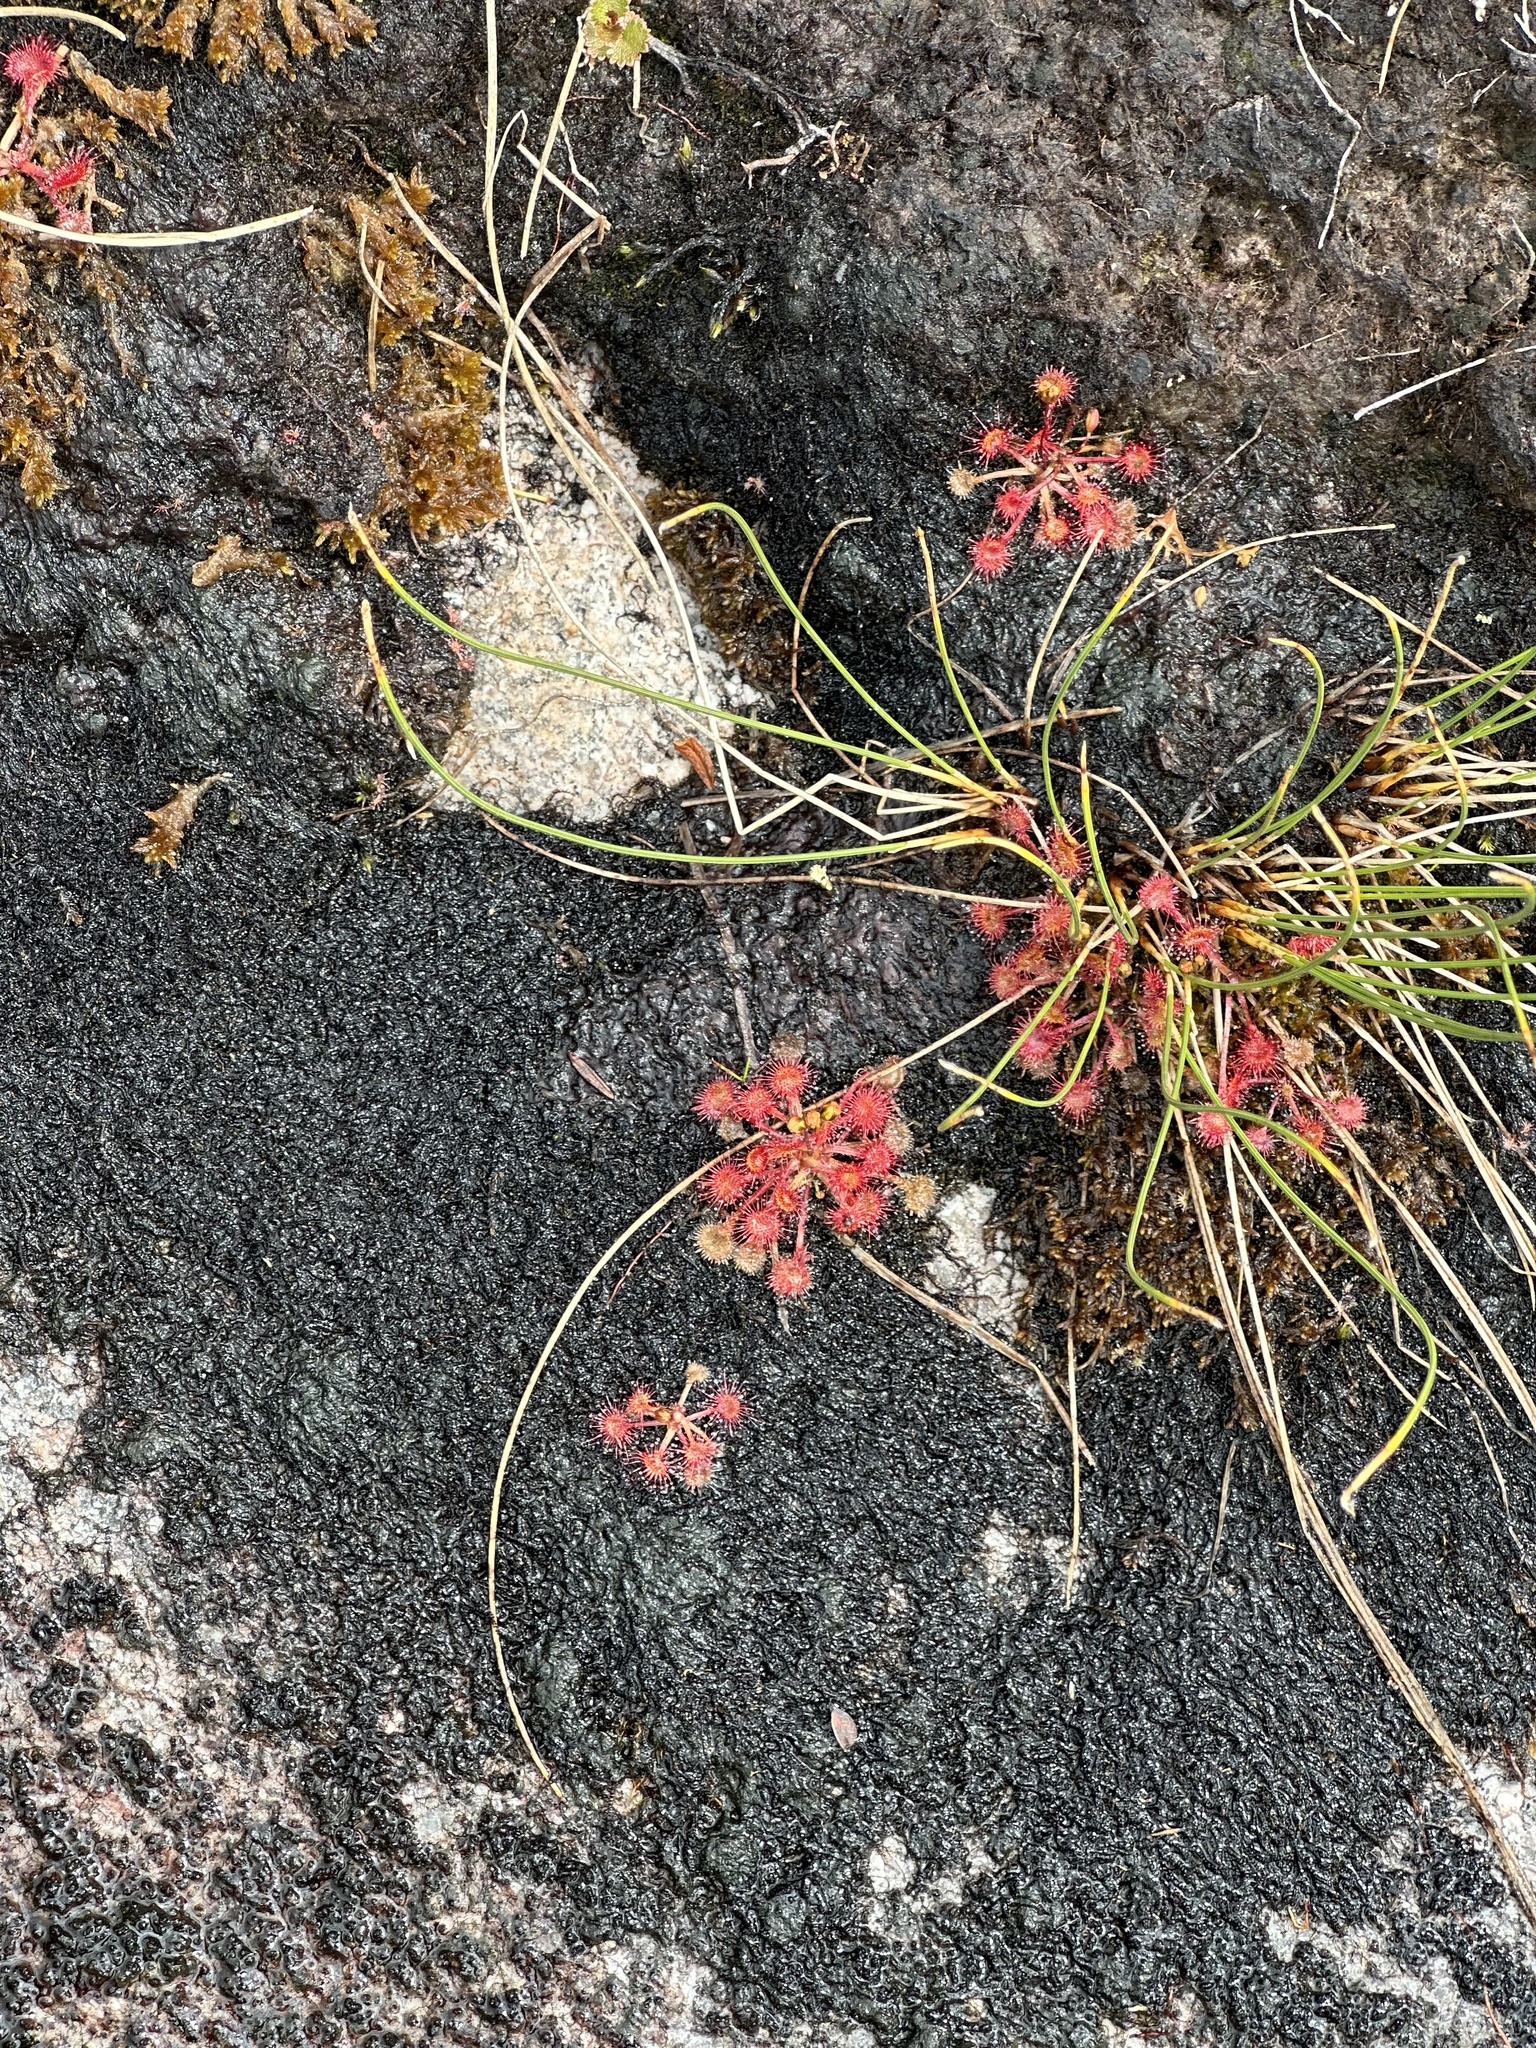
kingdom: Plantae
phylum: Tracheophyta
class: Magnoliopsida
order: Caryophyllales
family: Droseraceae
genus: Drosera
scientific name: Drosera rotundifolia
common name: Round-leaved sundew
